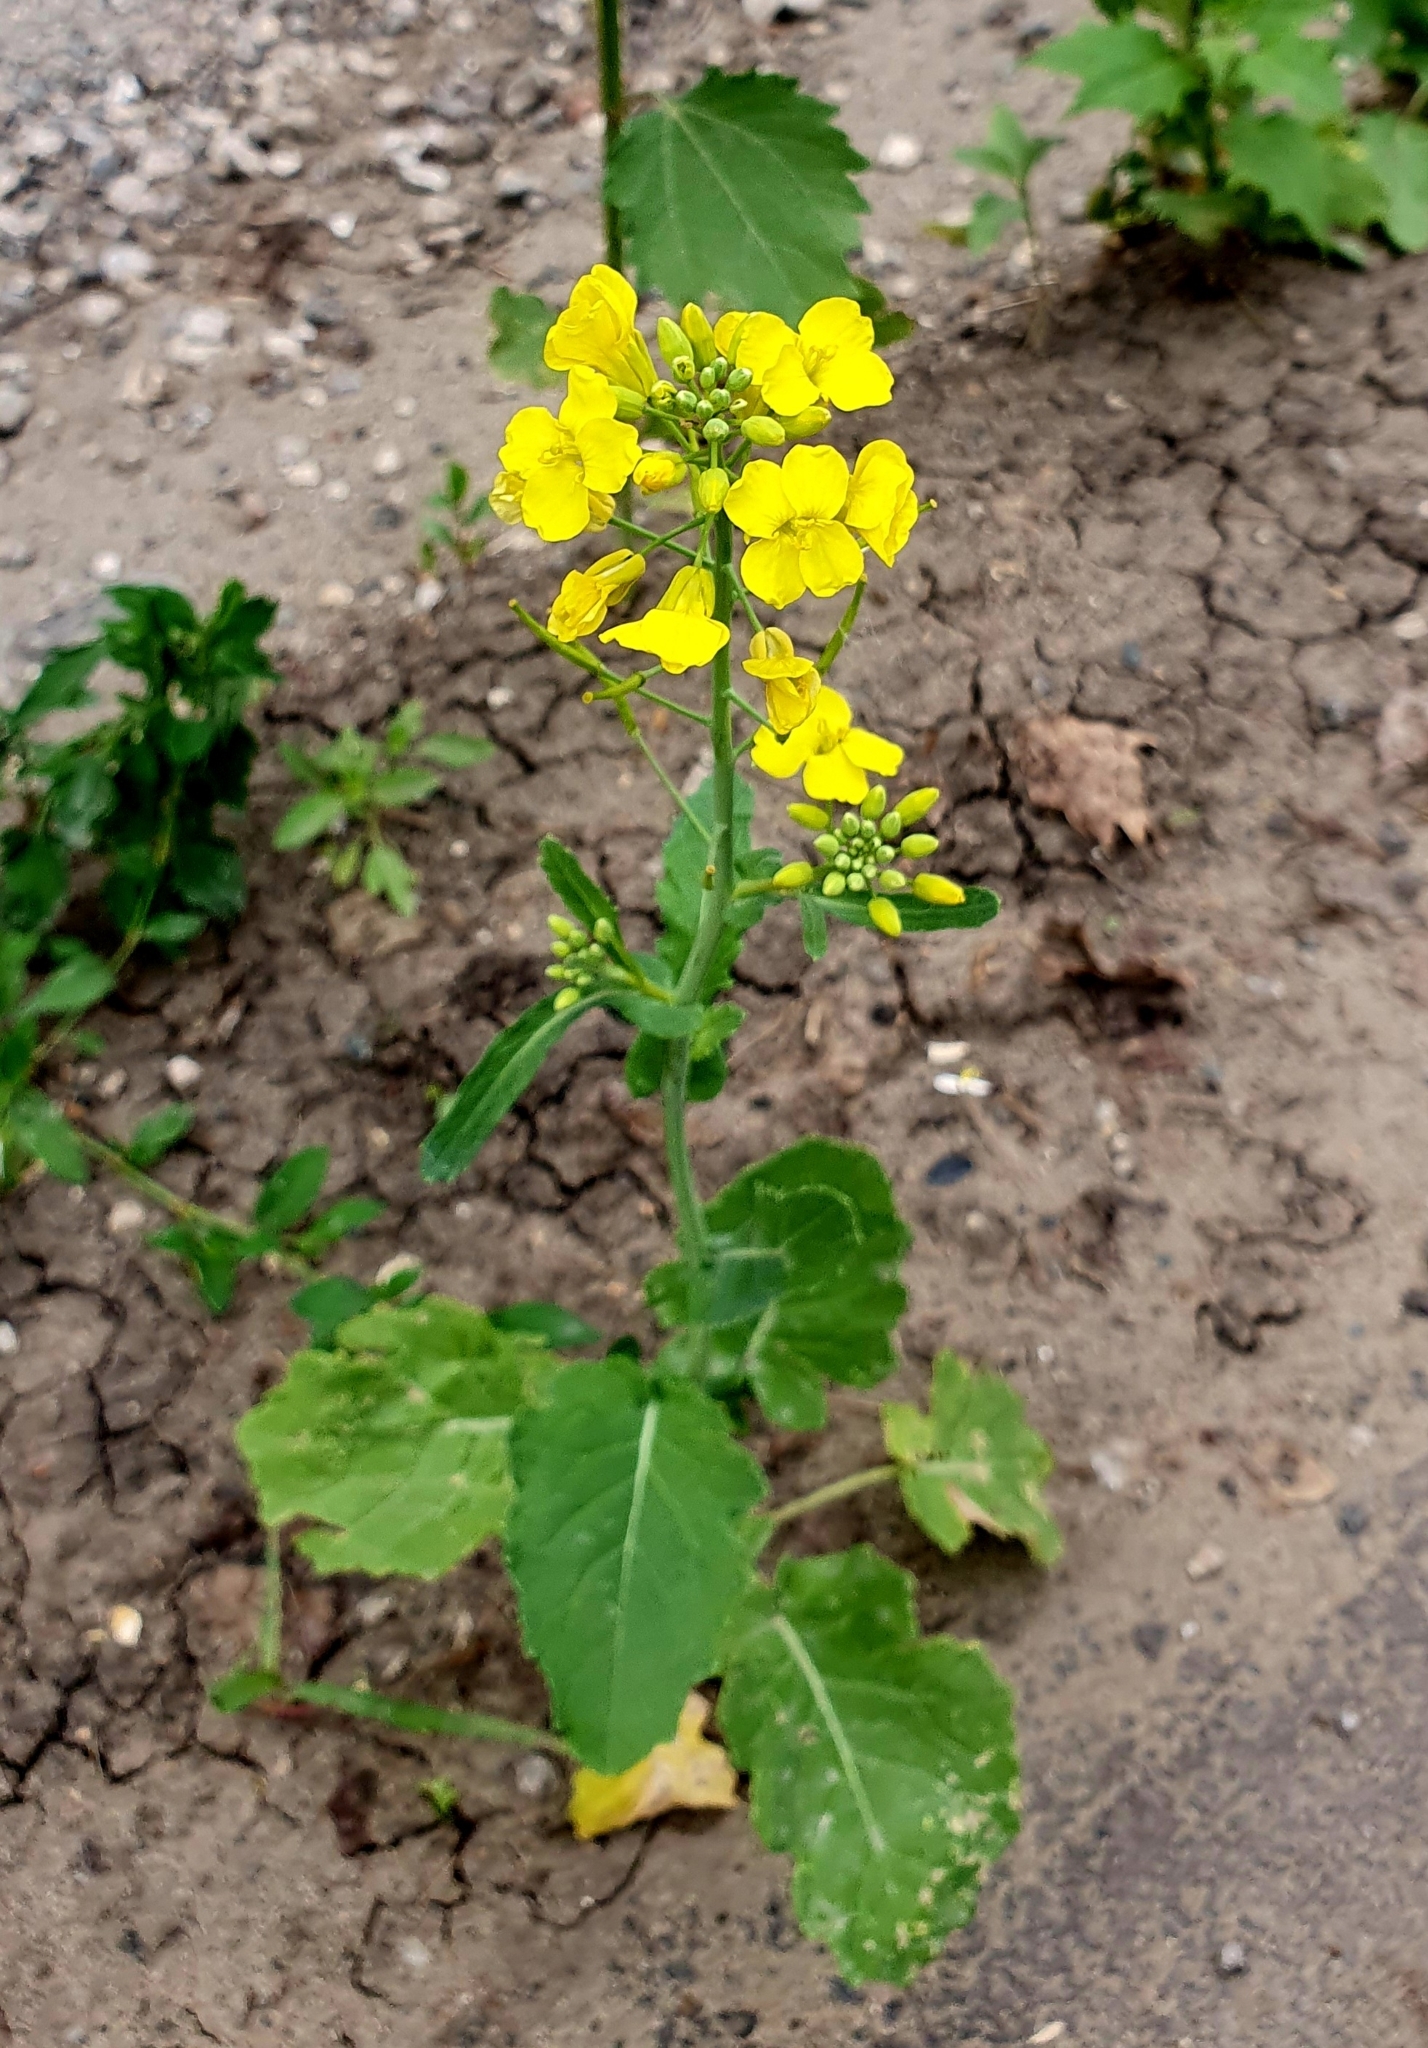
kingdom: Plantae
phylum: Tracheophyta
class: Magnoliopsida
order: Brassicales
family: Brassicaceae
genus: Brassica
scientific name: Brassica napus
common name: Rape
